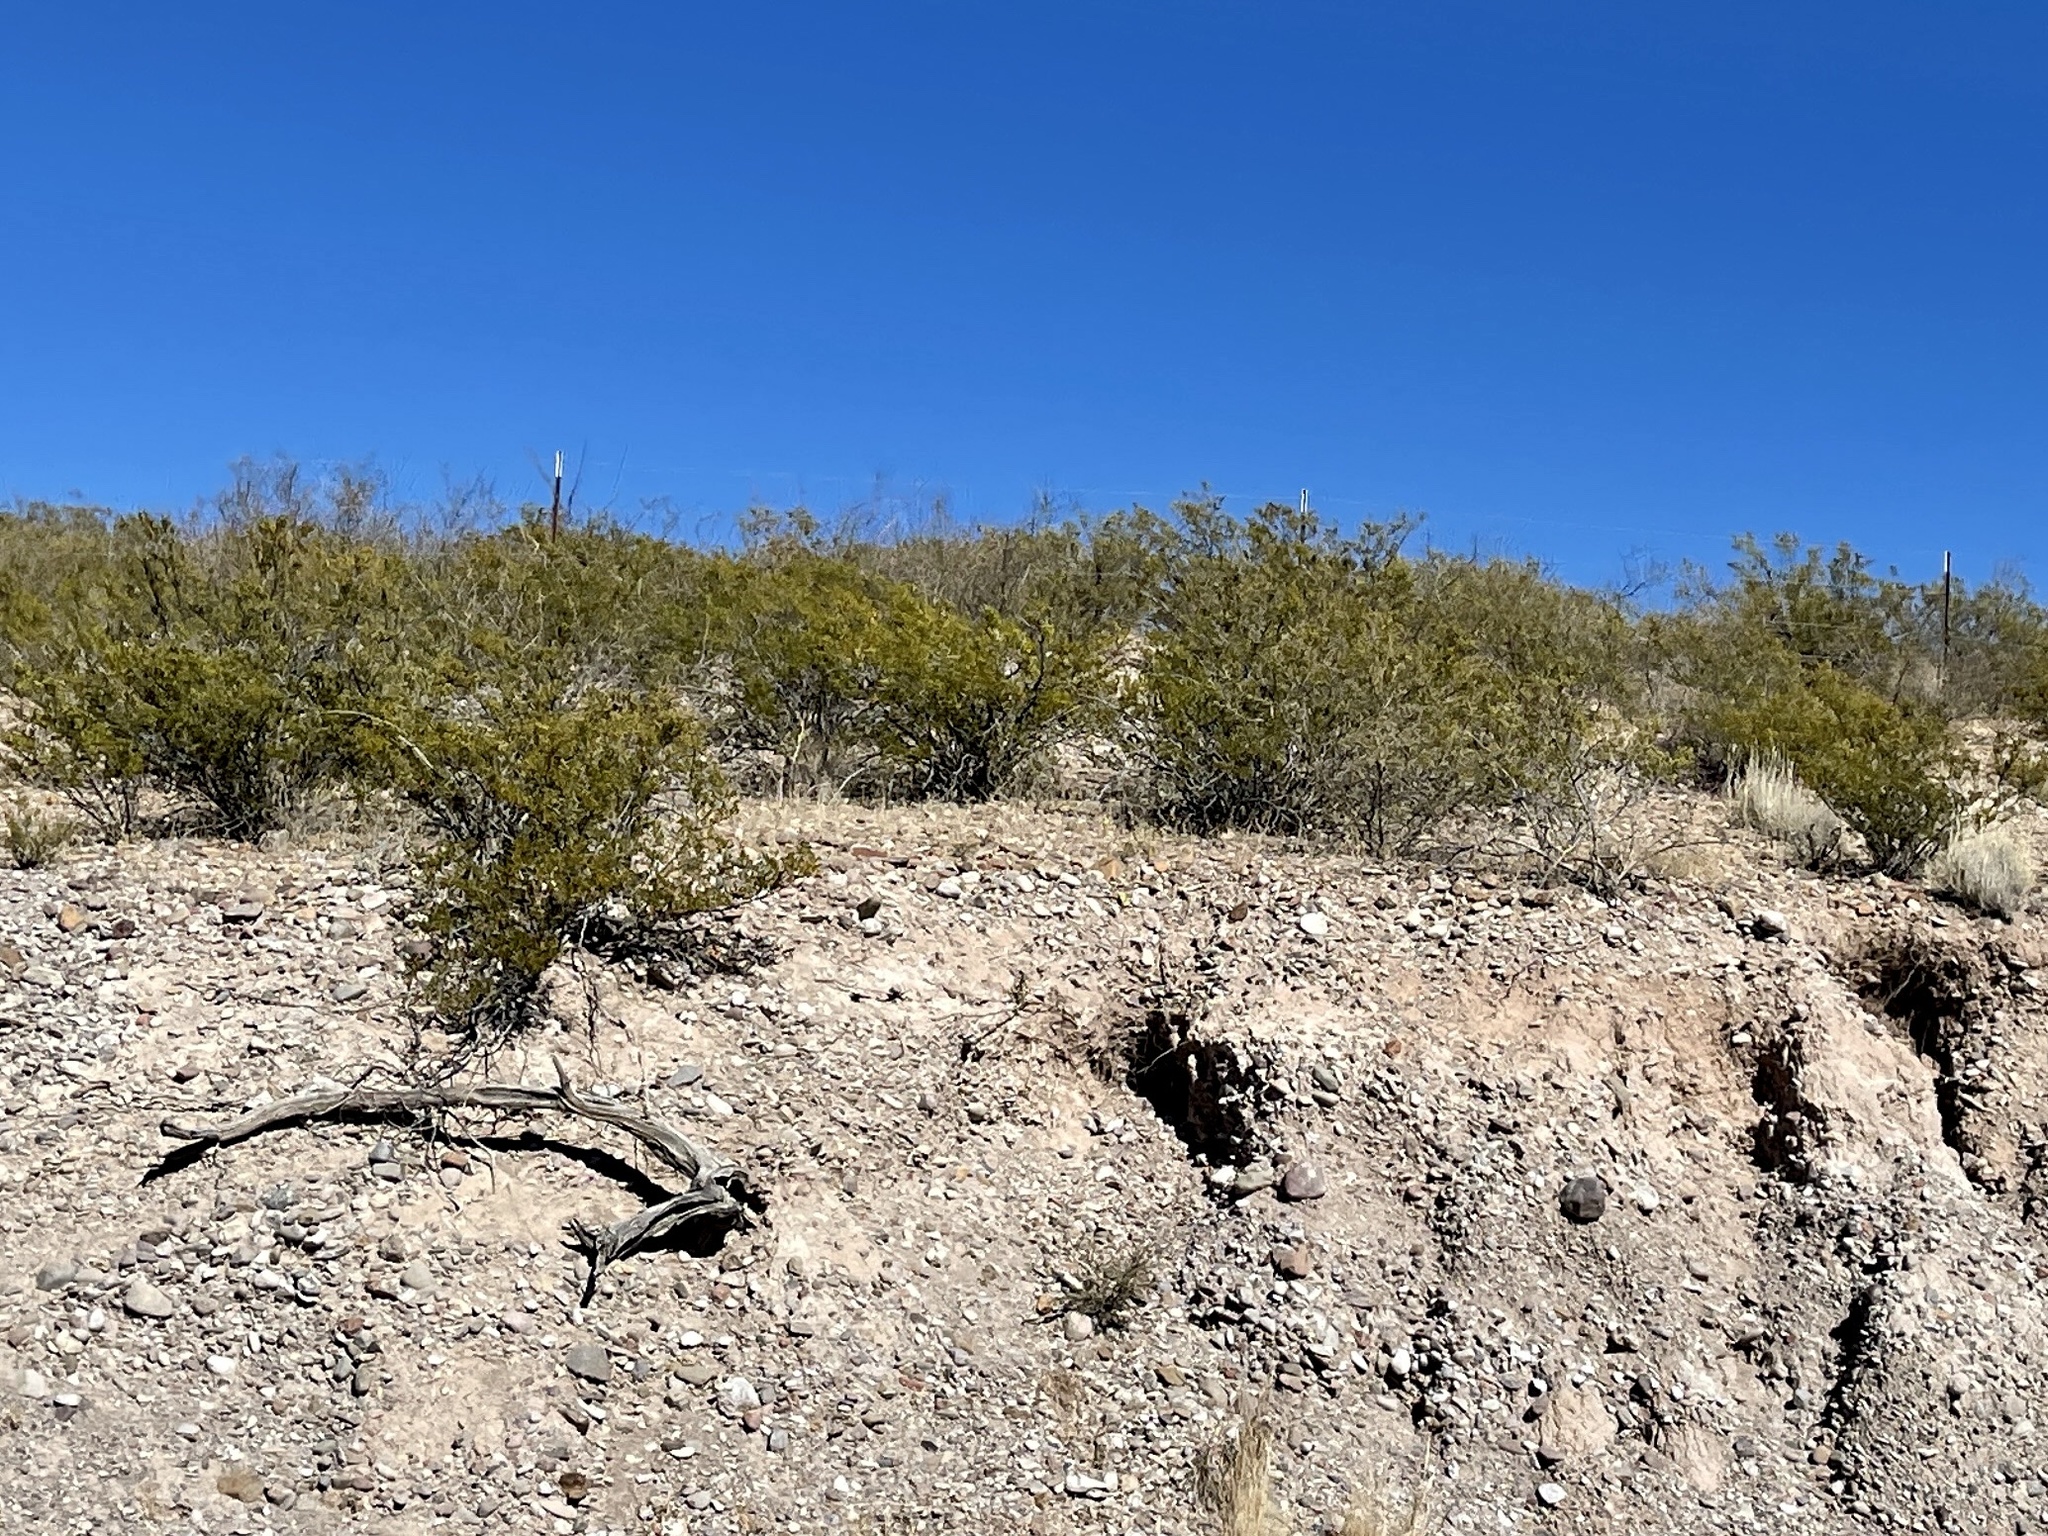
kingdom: Plantae
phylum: Tracheophyta
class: Magnoliopsida
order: Zygophyllales
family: Zygophyllaceae
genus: Larrea
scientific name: Larrea tridentata
